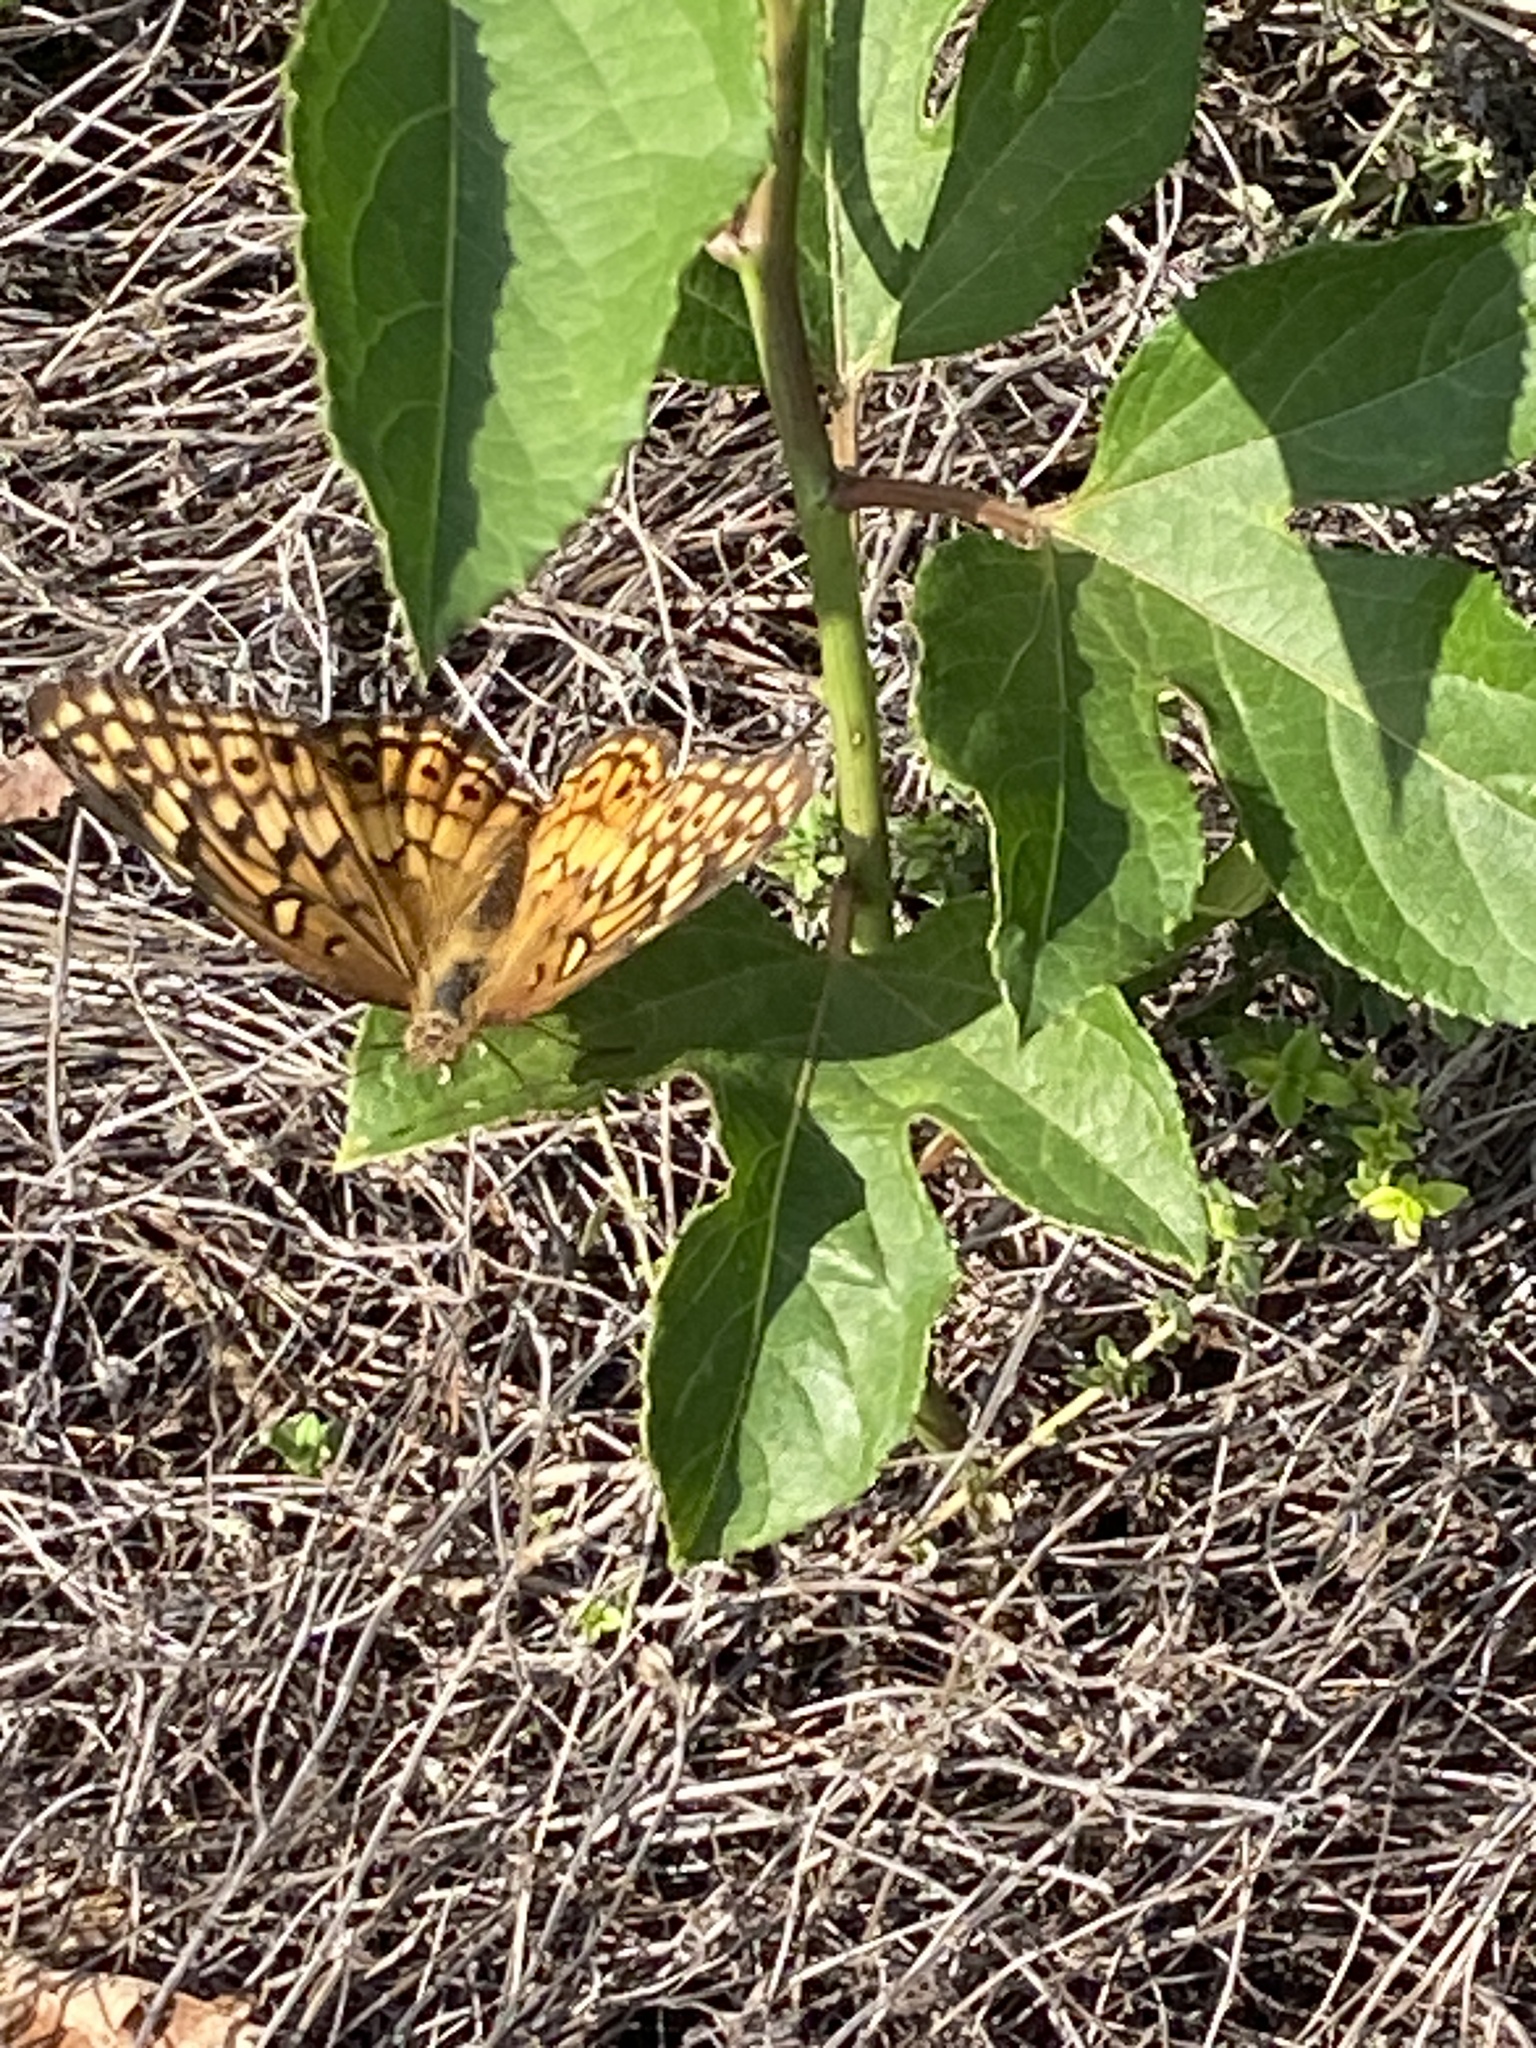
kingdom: Animalia
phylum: Arthropoda
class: Insecta
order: Lepidoptera
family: Nymphalidae
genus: Euptoieta
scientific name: Euptoieta claudia
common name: Variegated fritillary
